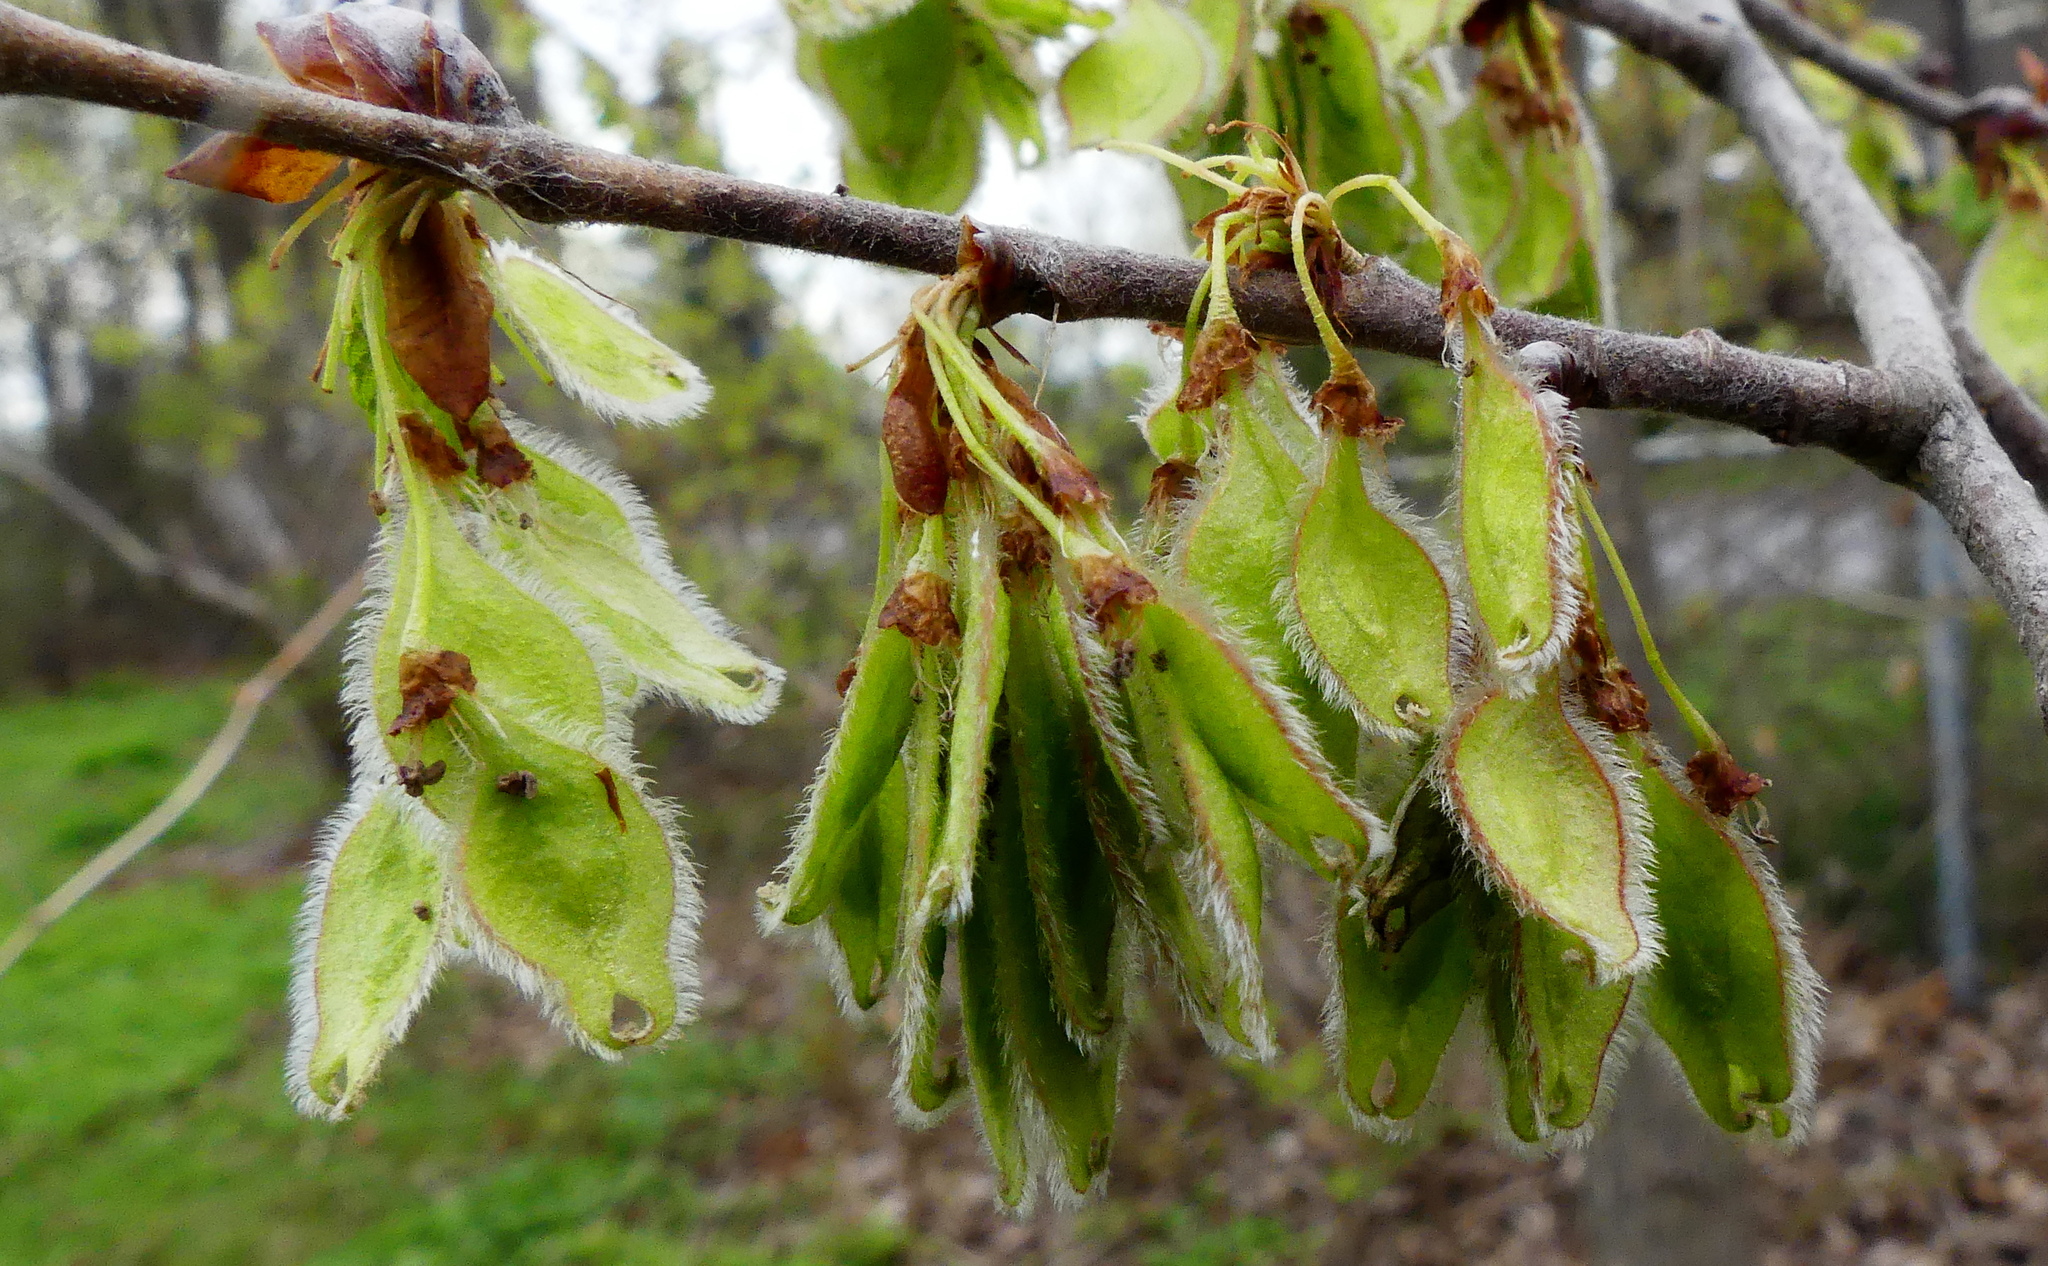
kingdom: Plantae
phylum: Tracheophyta
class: Magnoliopsida
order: Rosales
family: Ulmaceae
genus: Ulmus
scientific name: Ulmus americana
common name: American elm
